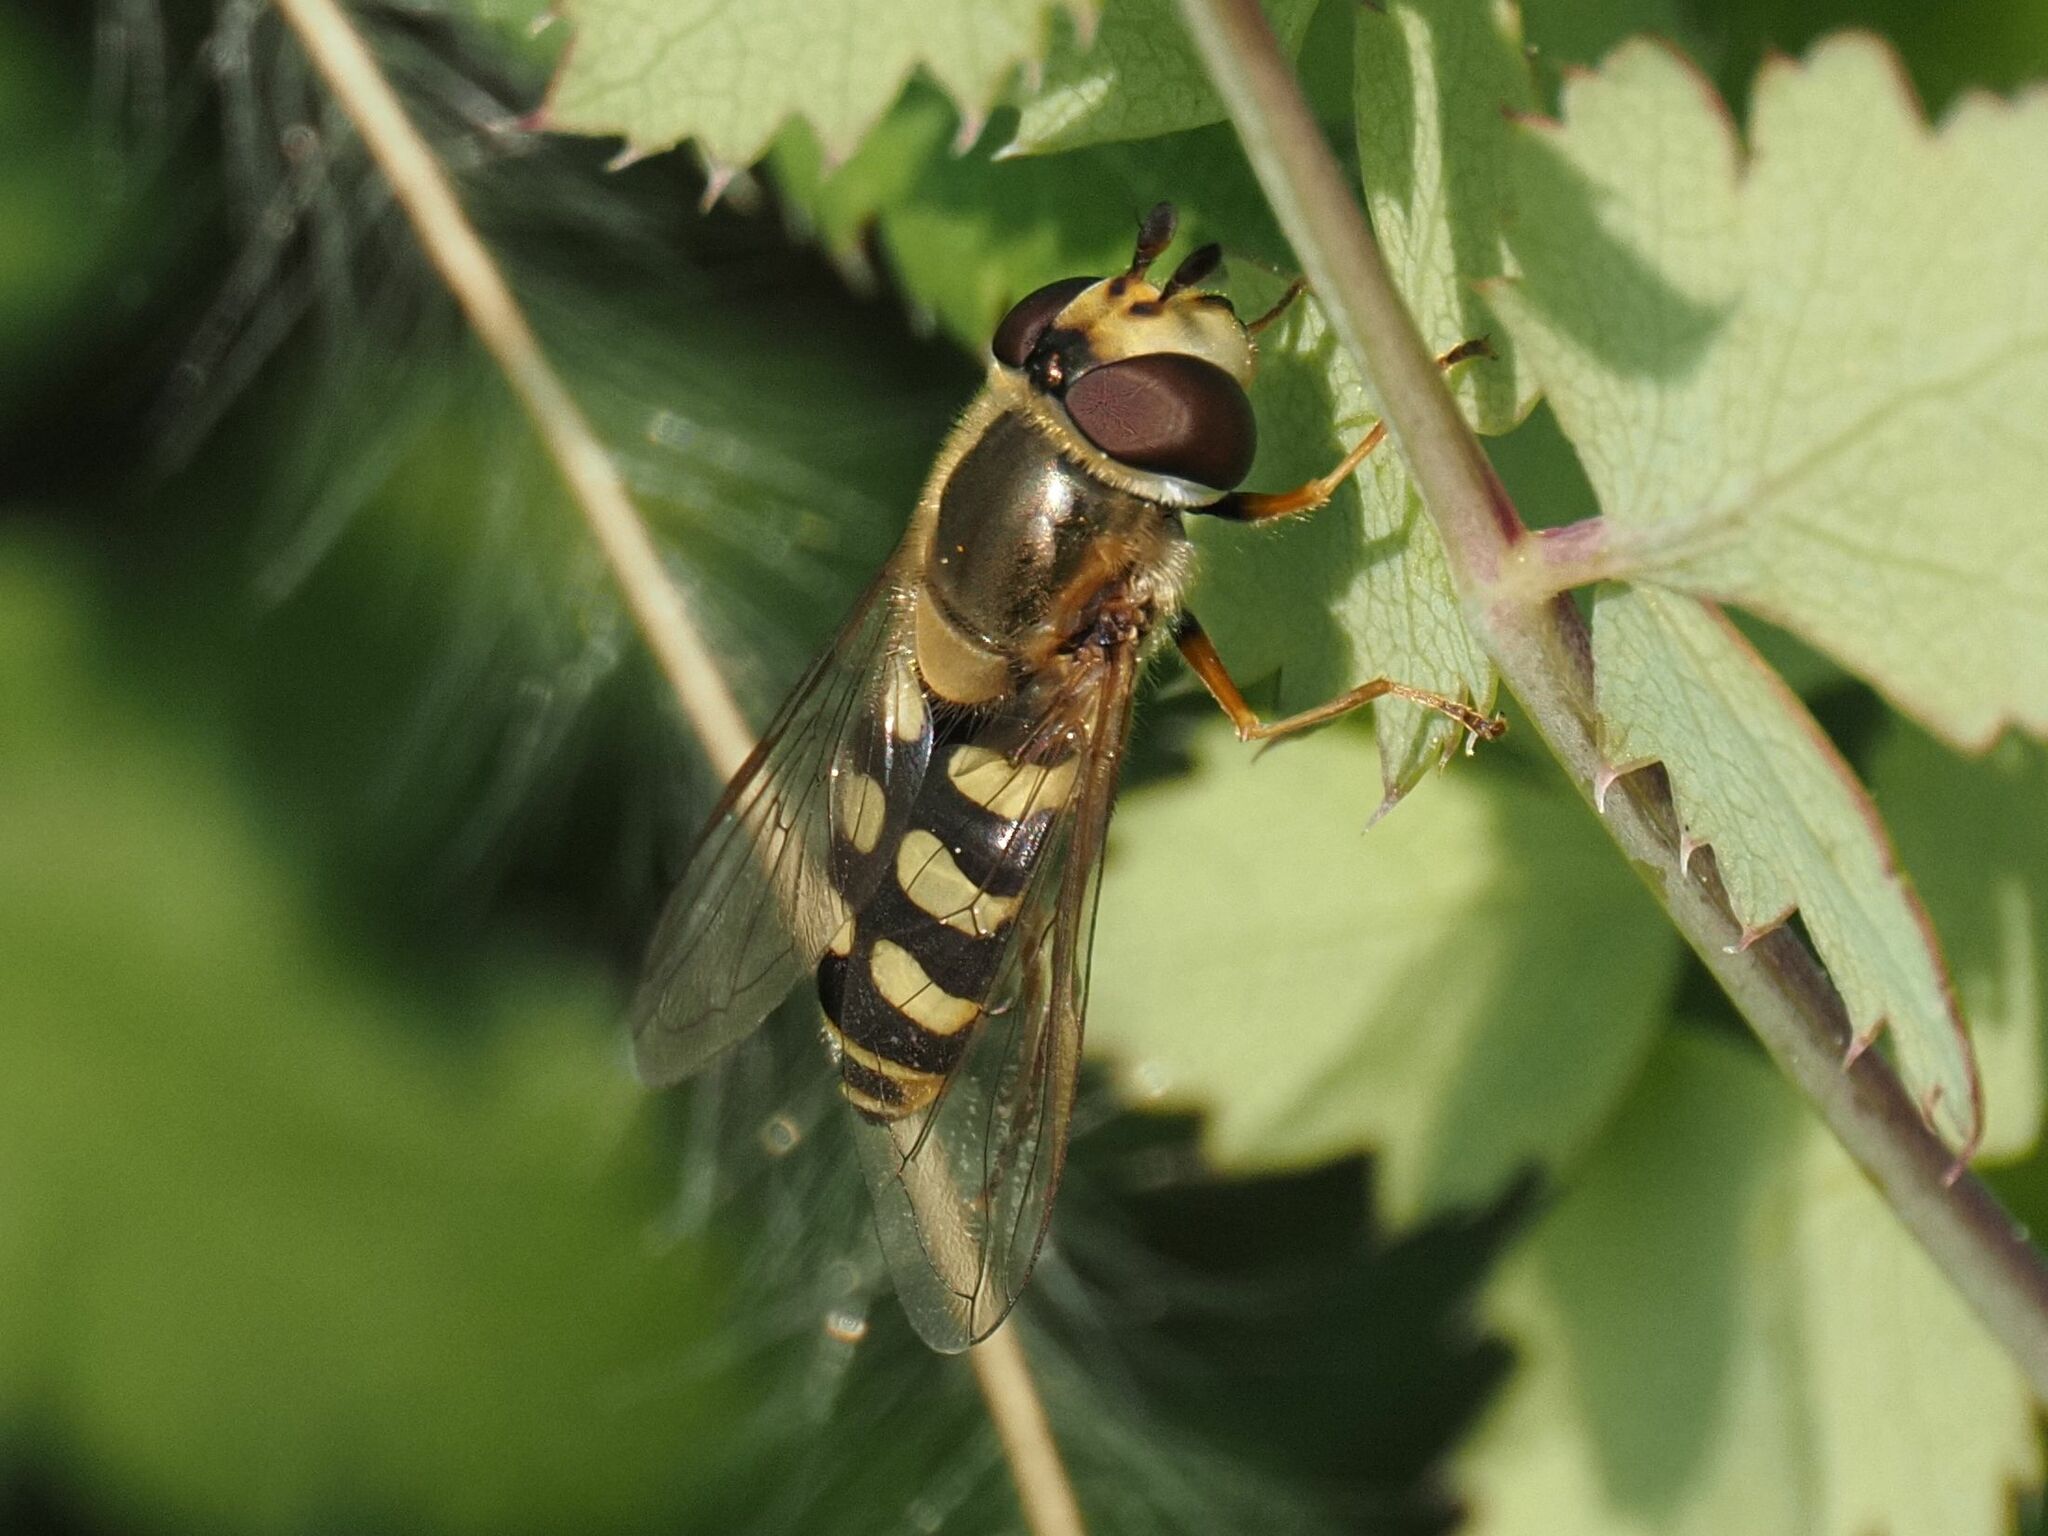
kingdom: Animalia
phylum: Arthropoda
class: Insecta
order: Diptera
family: Syrphidae
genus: Eupeodes
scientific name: Eupeodes corollae
